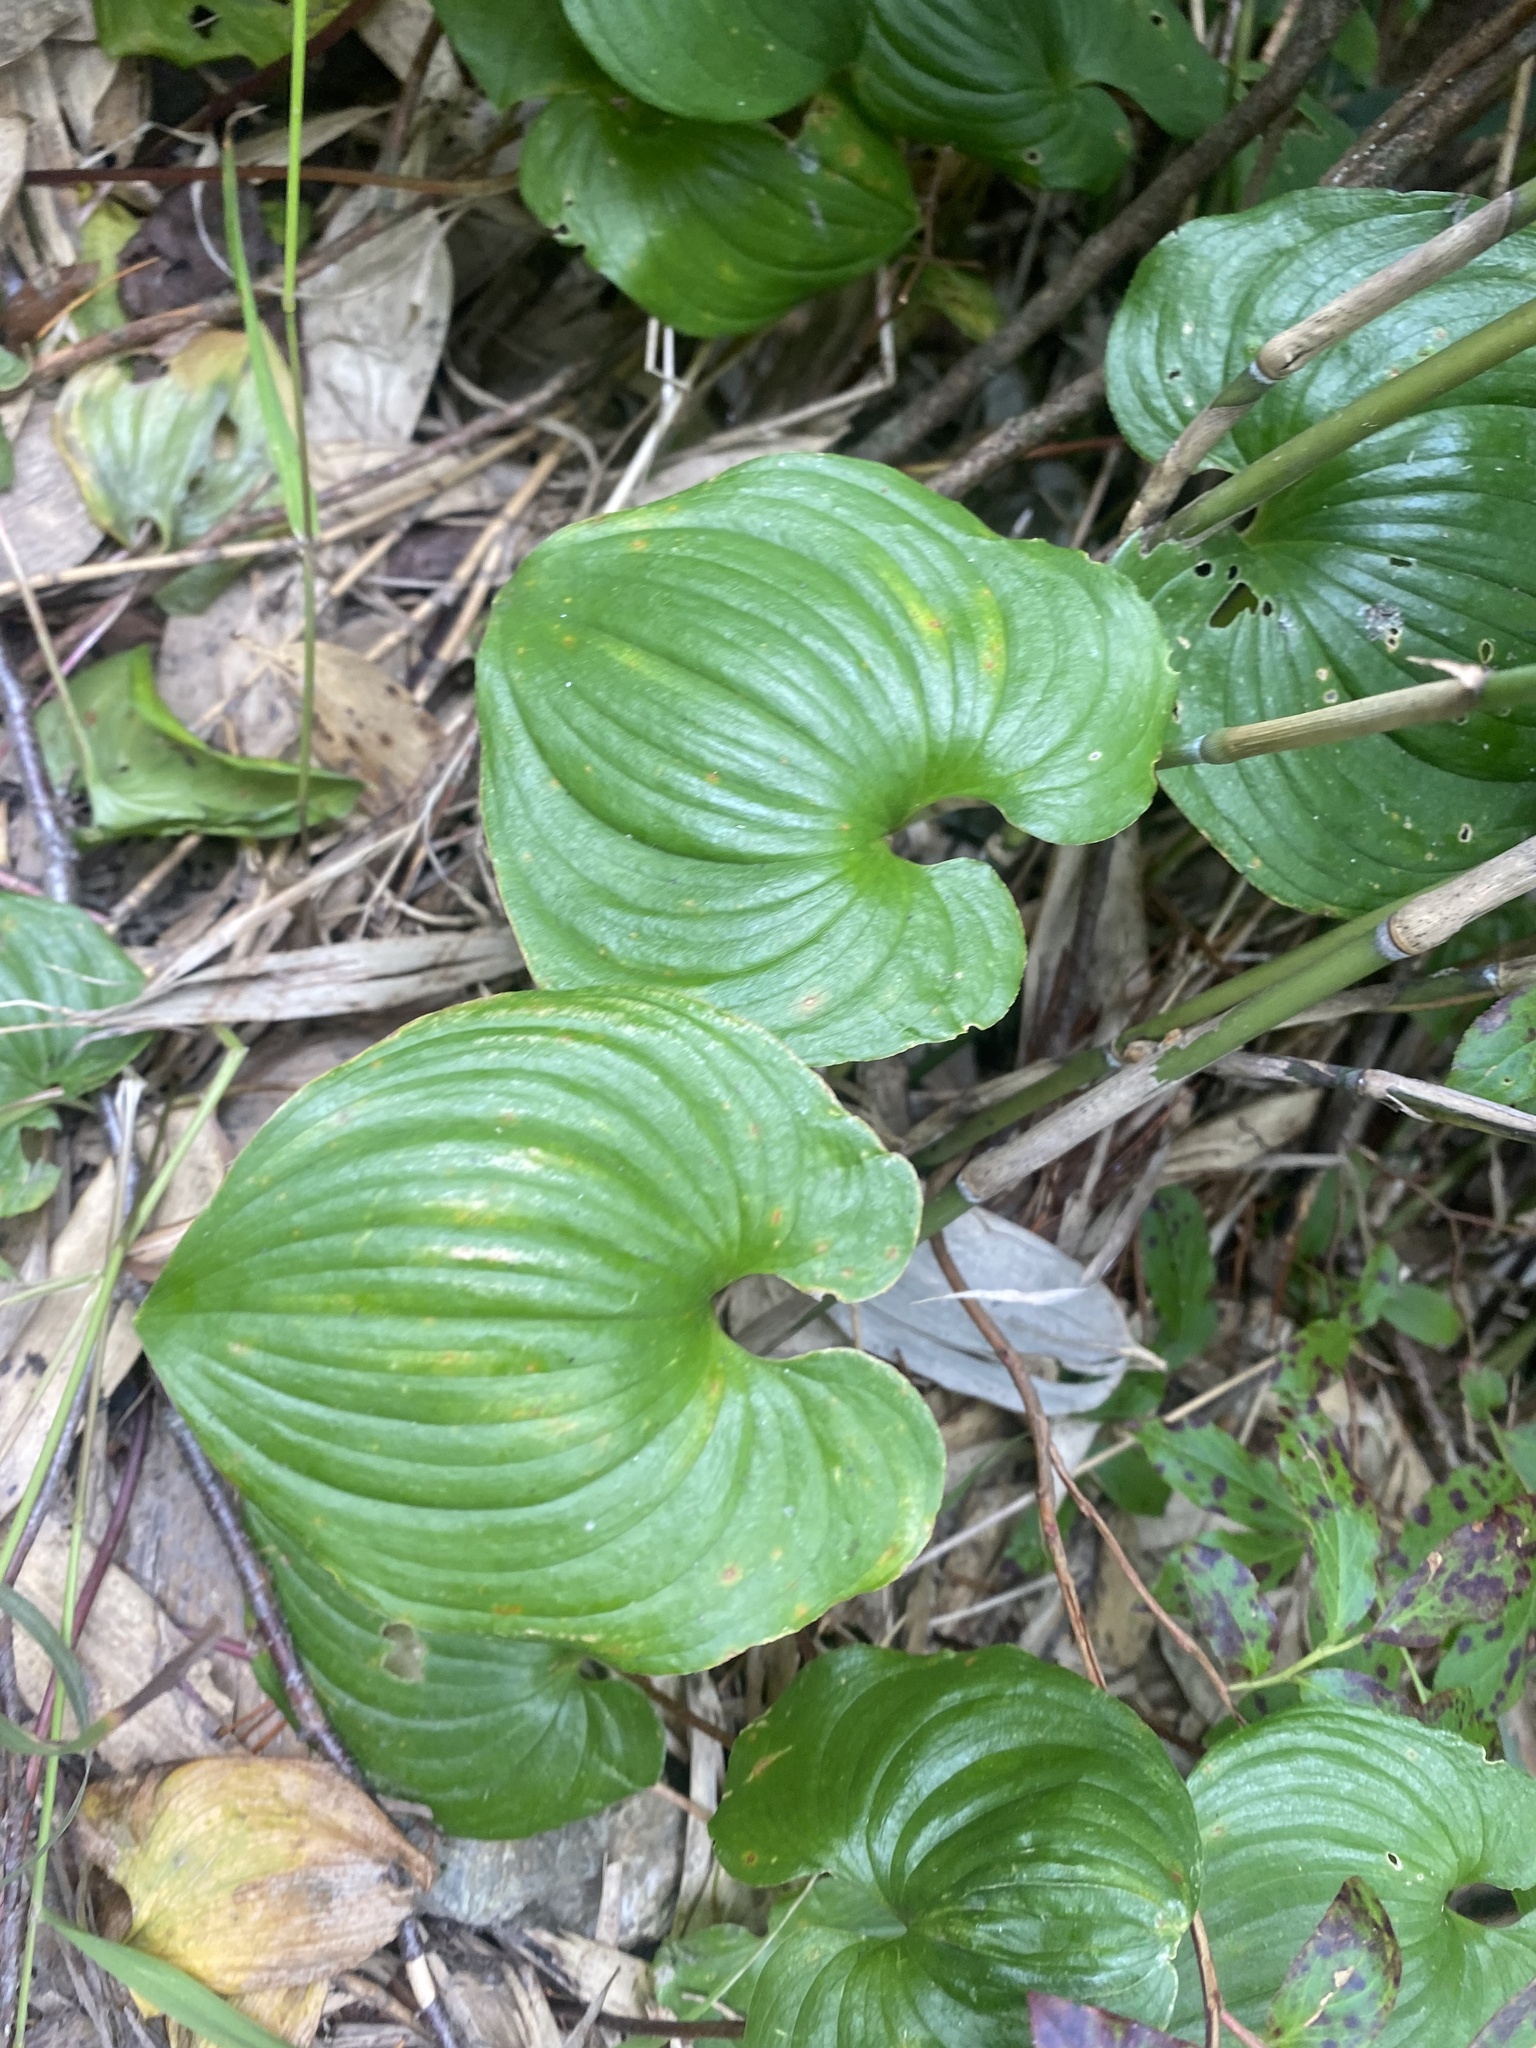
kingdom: Plantae
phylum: Tracheophyta
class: Liliopsida
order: Asparagales
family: Asparagaceae
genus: Maianthemum
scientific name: Maianthemum dilatatum
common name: False lily-of-the-valley
